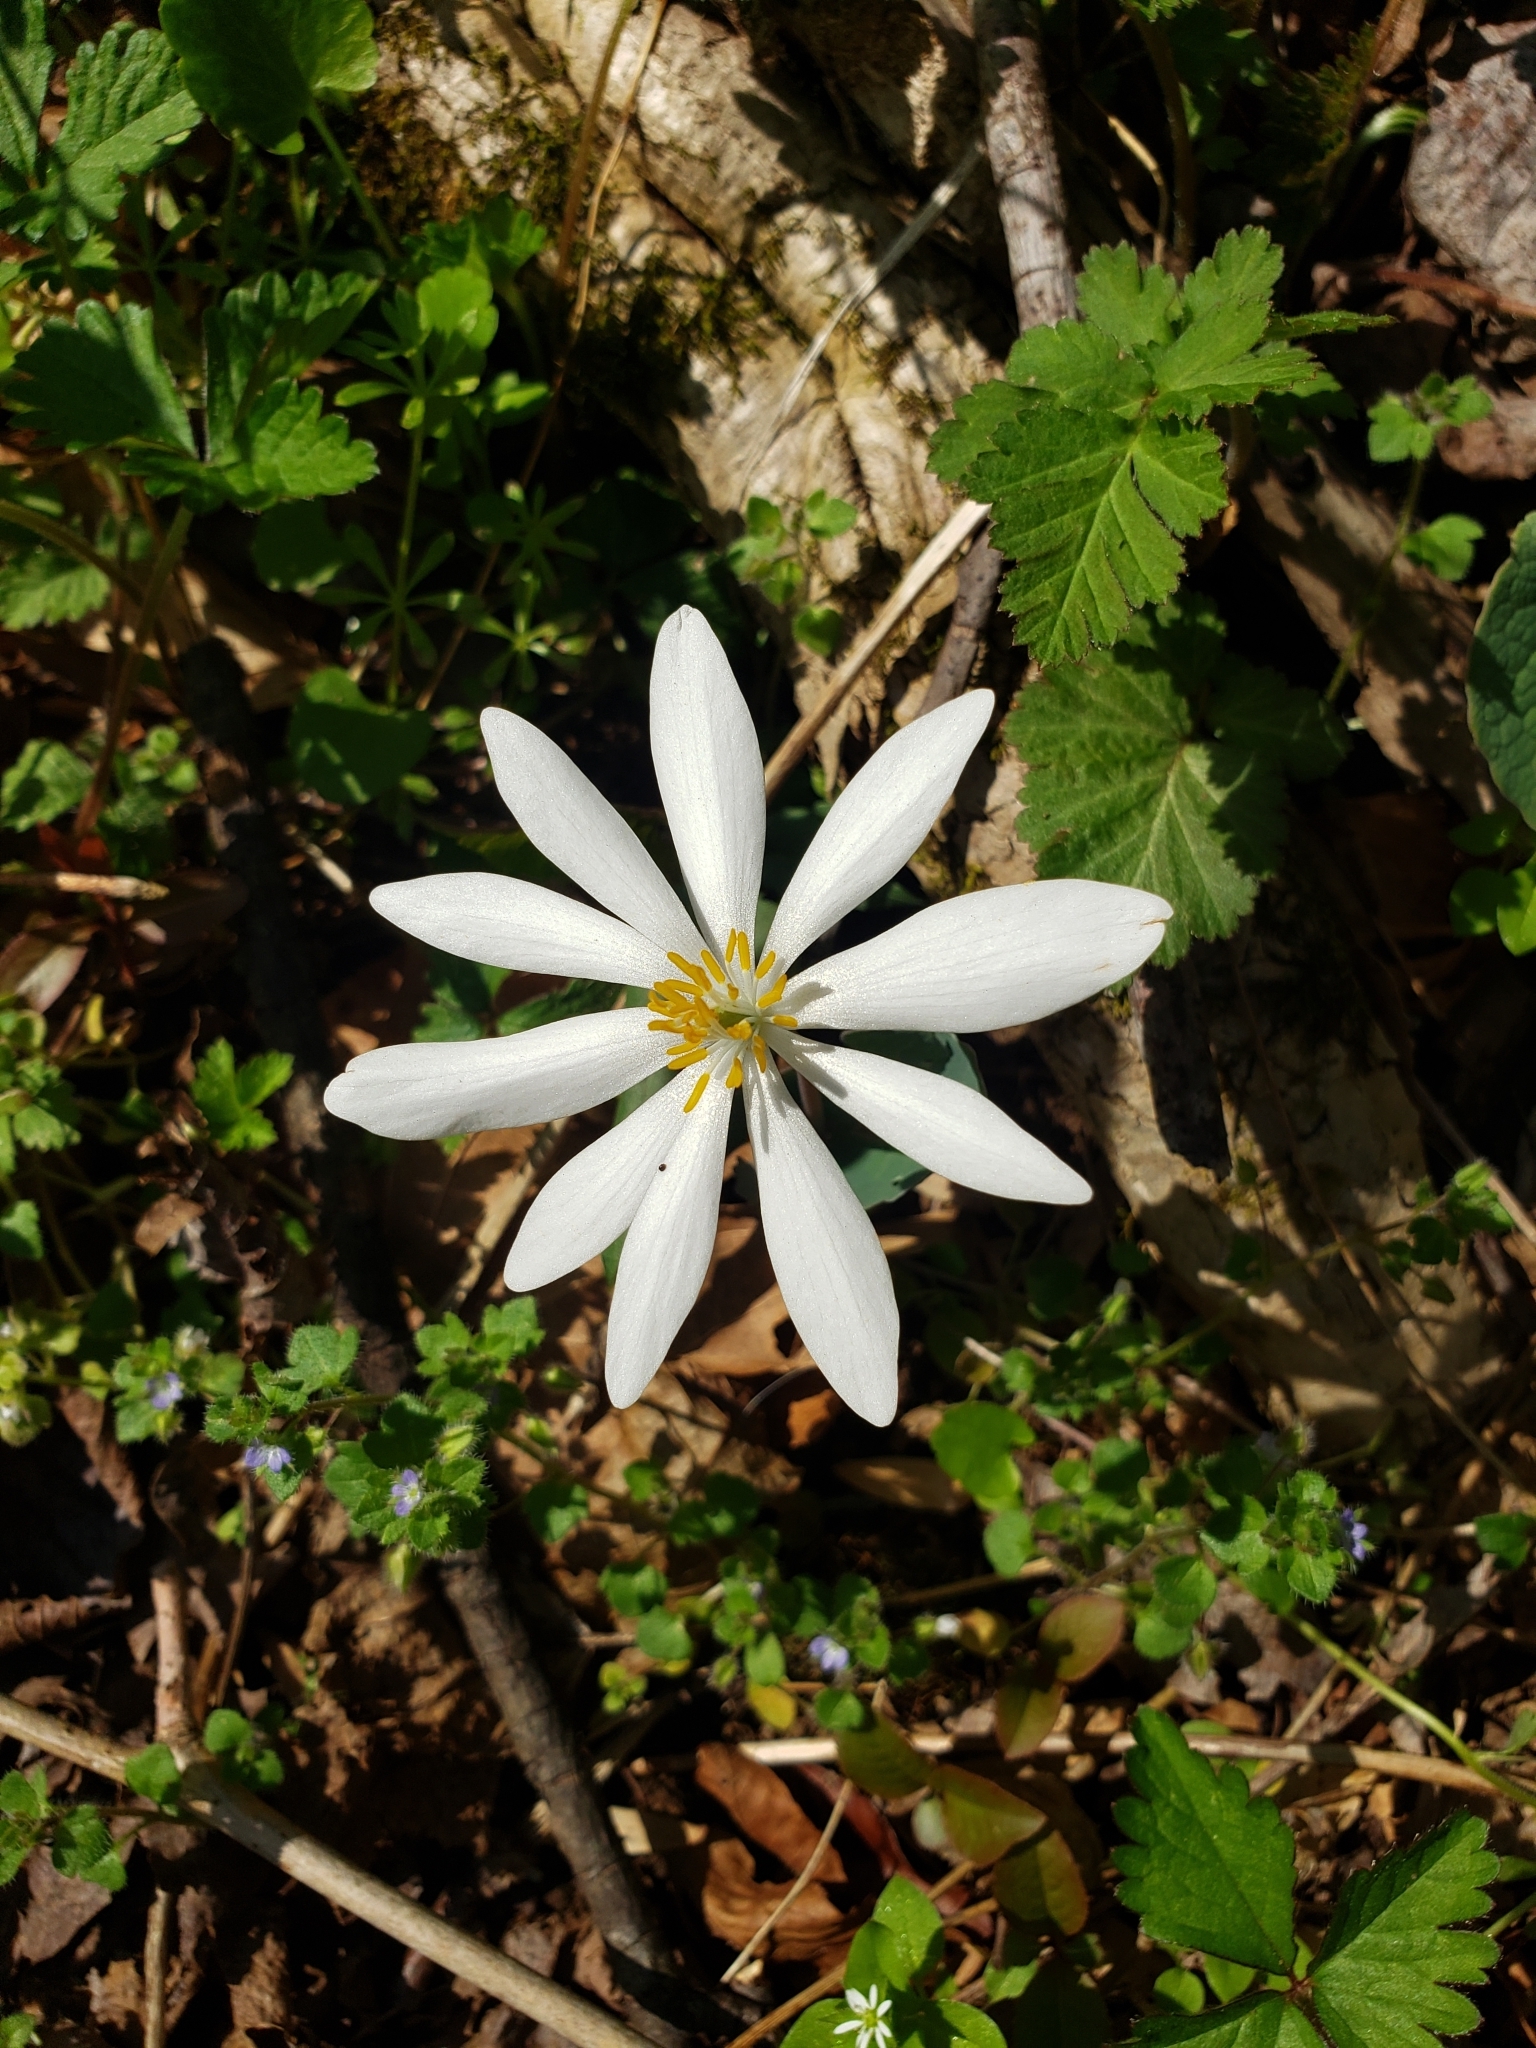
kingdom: Plantae
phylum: Tracheophyta
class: Magnoliopsida
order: Ranunculales
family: Papaveraceae
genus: Sanguinaria
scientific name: Sanguinaria canadensis
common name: Bloodroot
